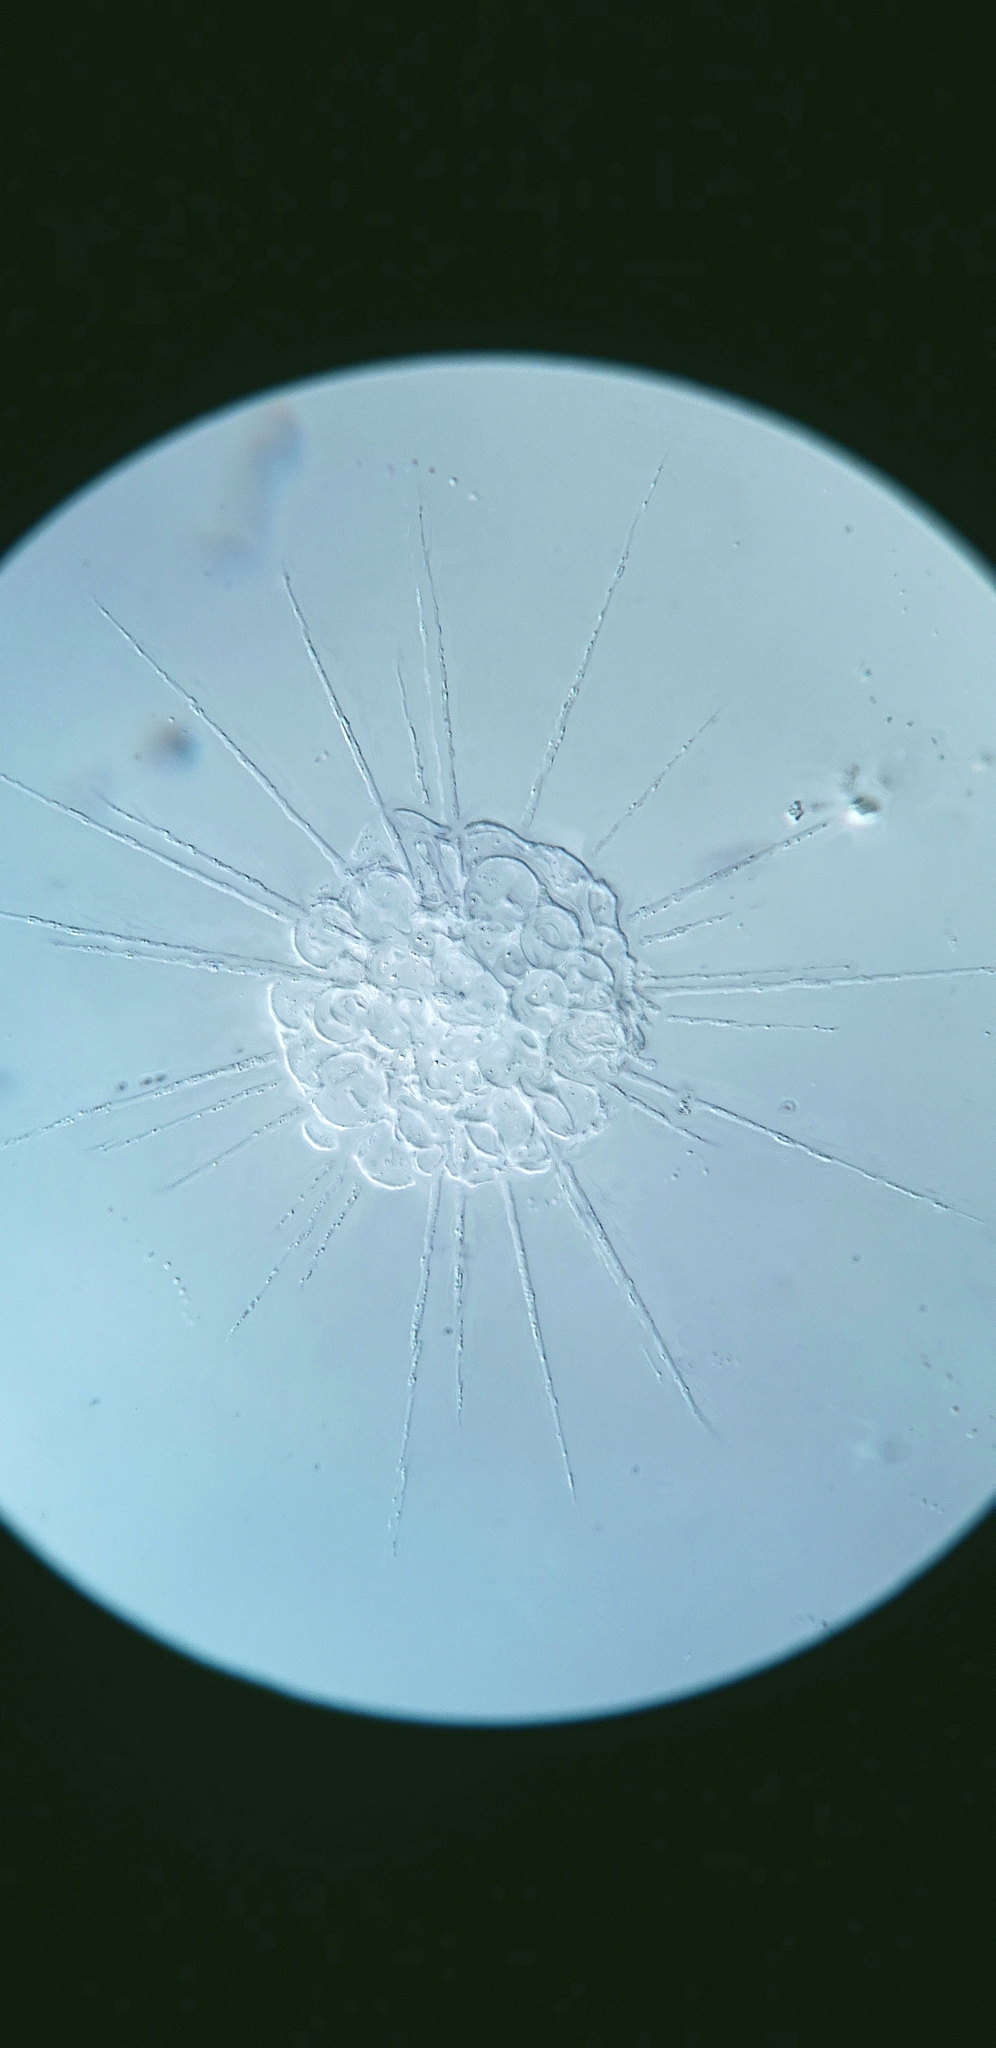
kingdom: Chromista
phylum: Ochrophyta
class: Raphidophyceae
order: Actinophryida
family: Actinophryidae
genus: Actinophrys
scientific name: Actinophrys sol
